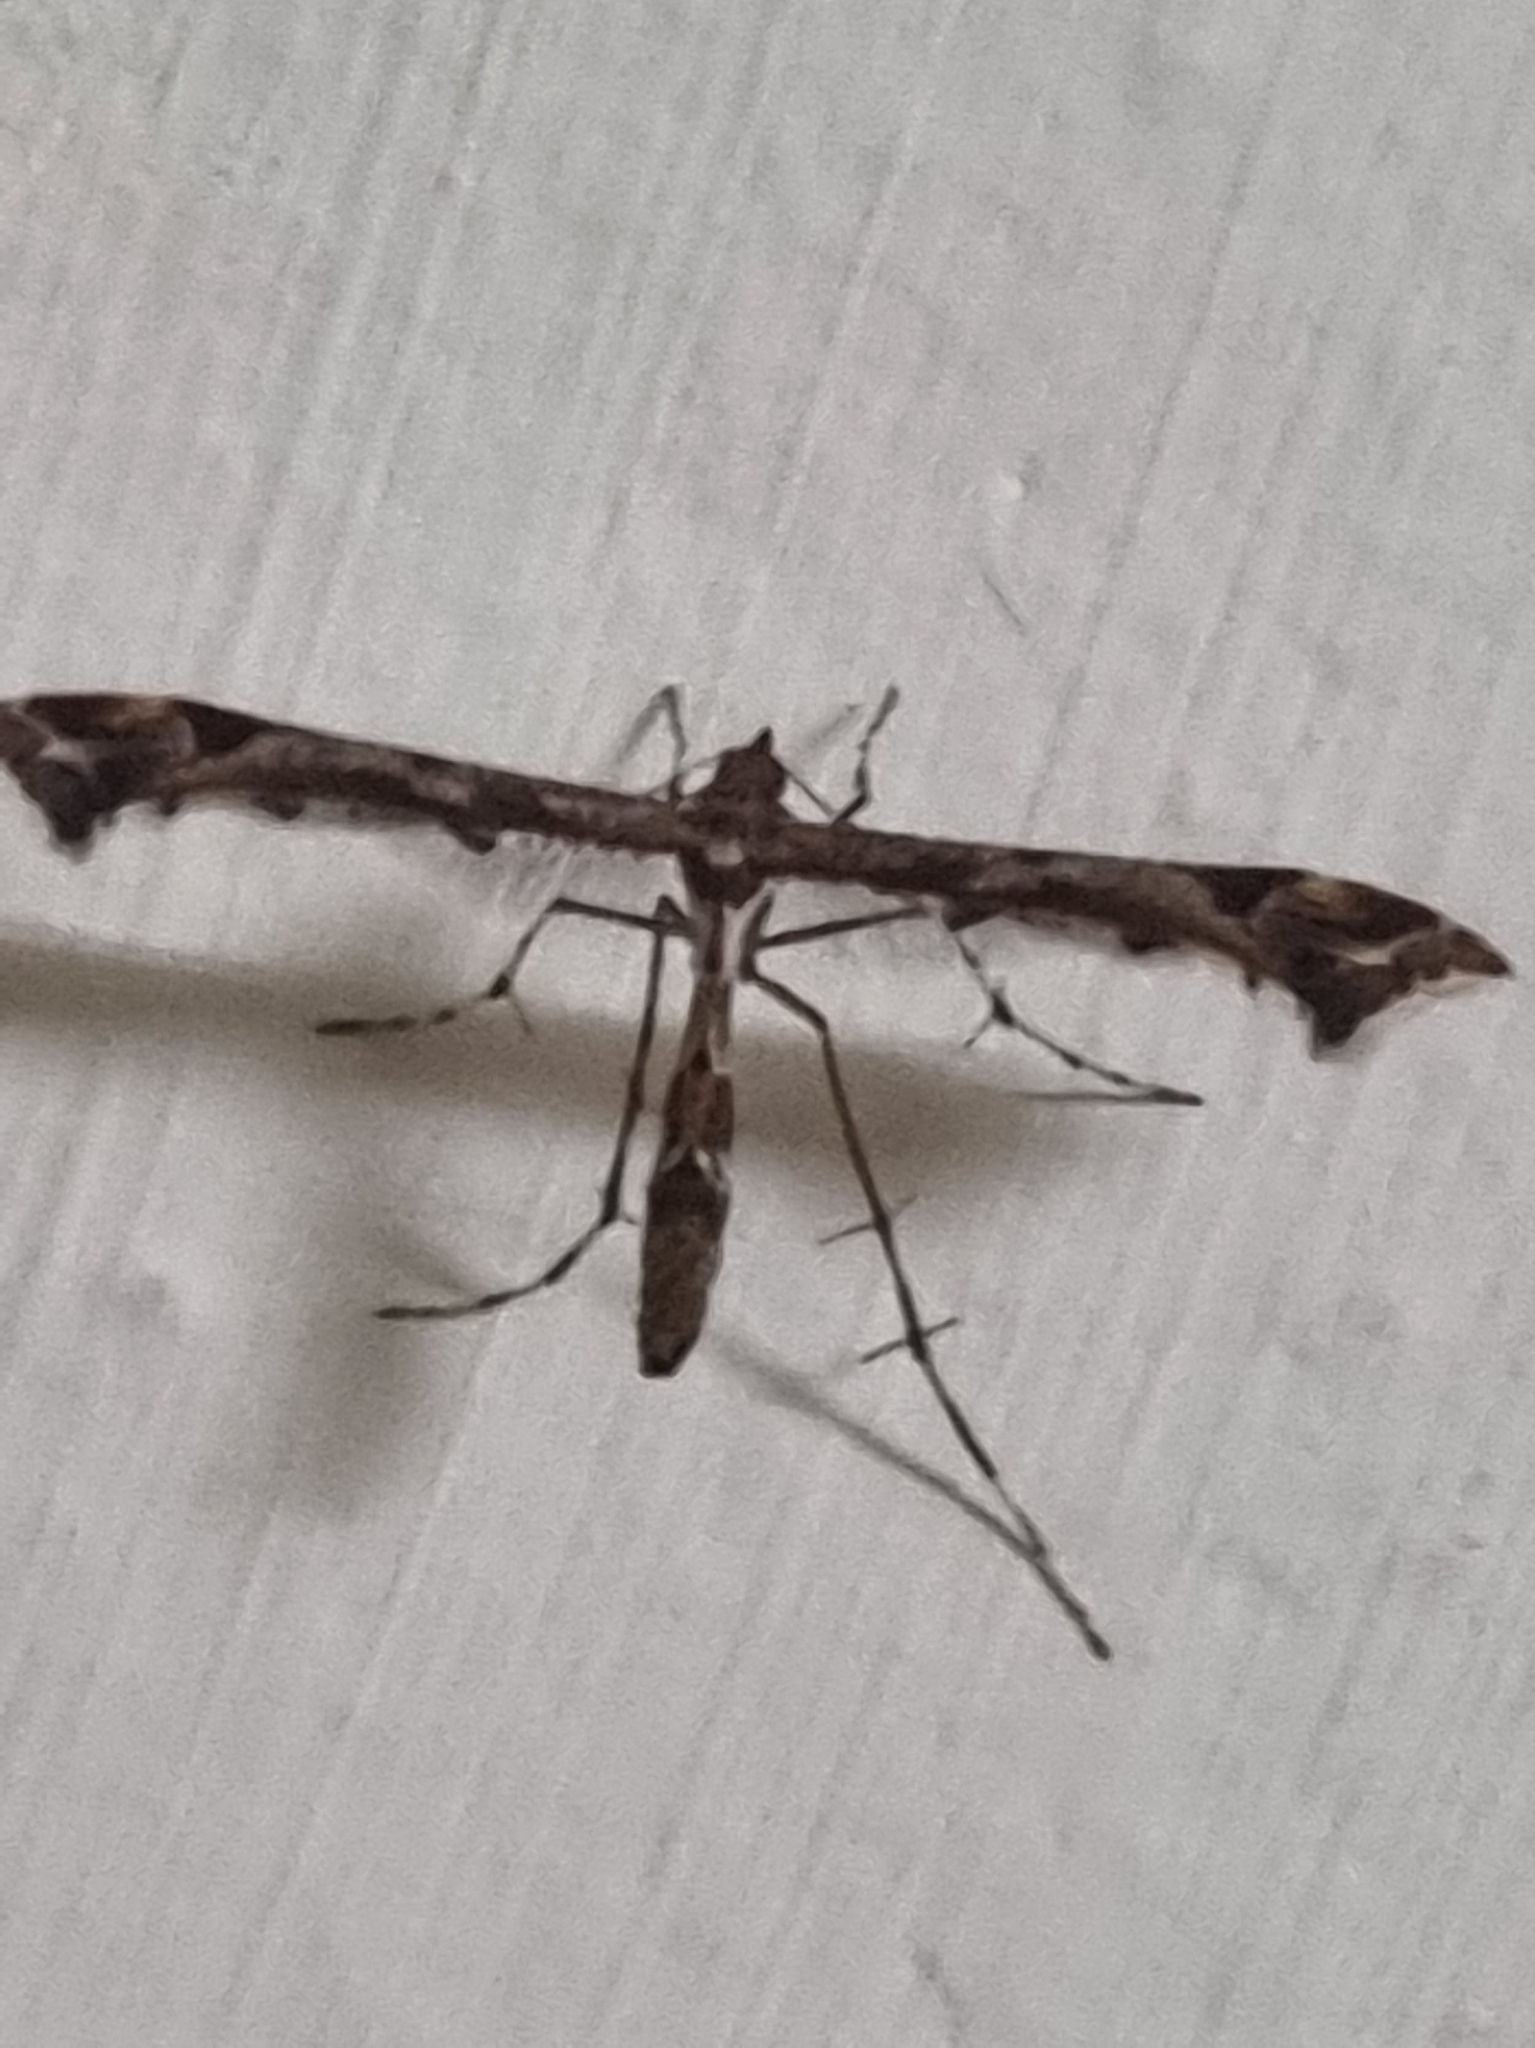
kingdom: Animalia
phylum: Arthropoda
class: Insecta
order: Lepidoptera
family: Pterophoridae
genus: Amblyptilia
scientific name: Amblyptilia acanthadactyla
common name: Beautiful plume
